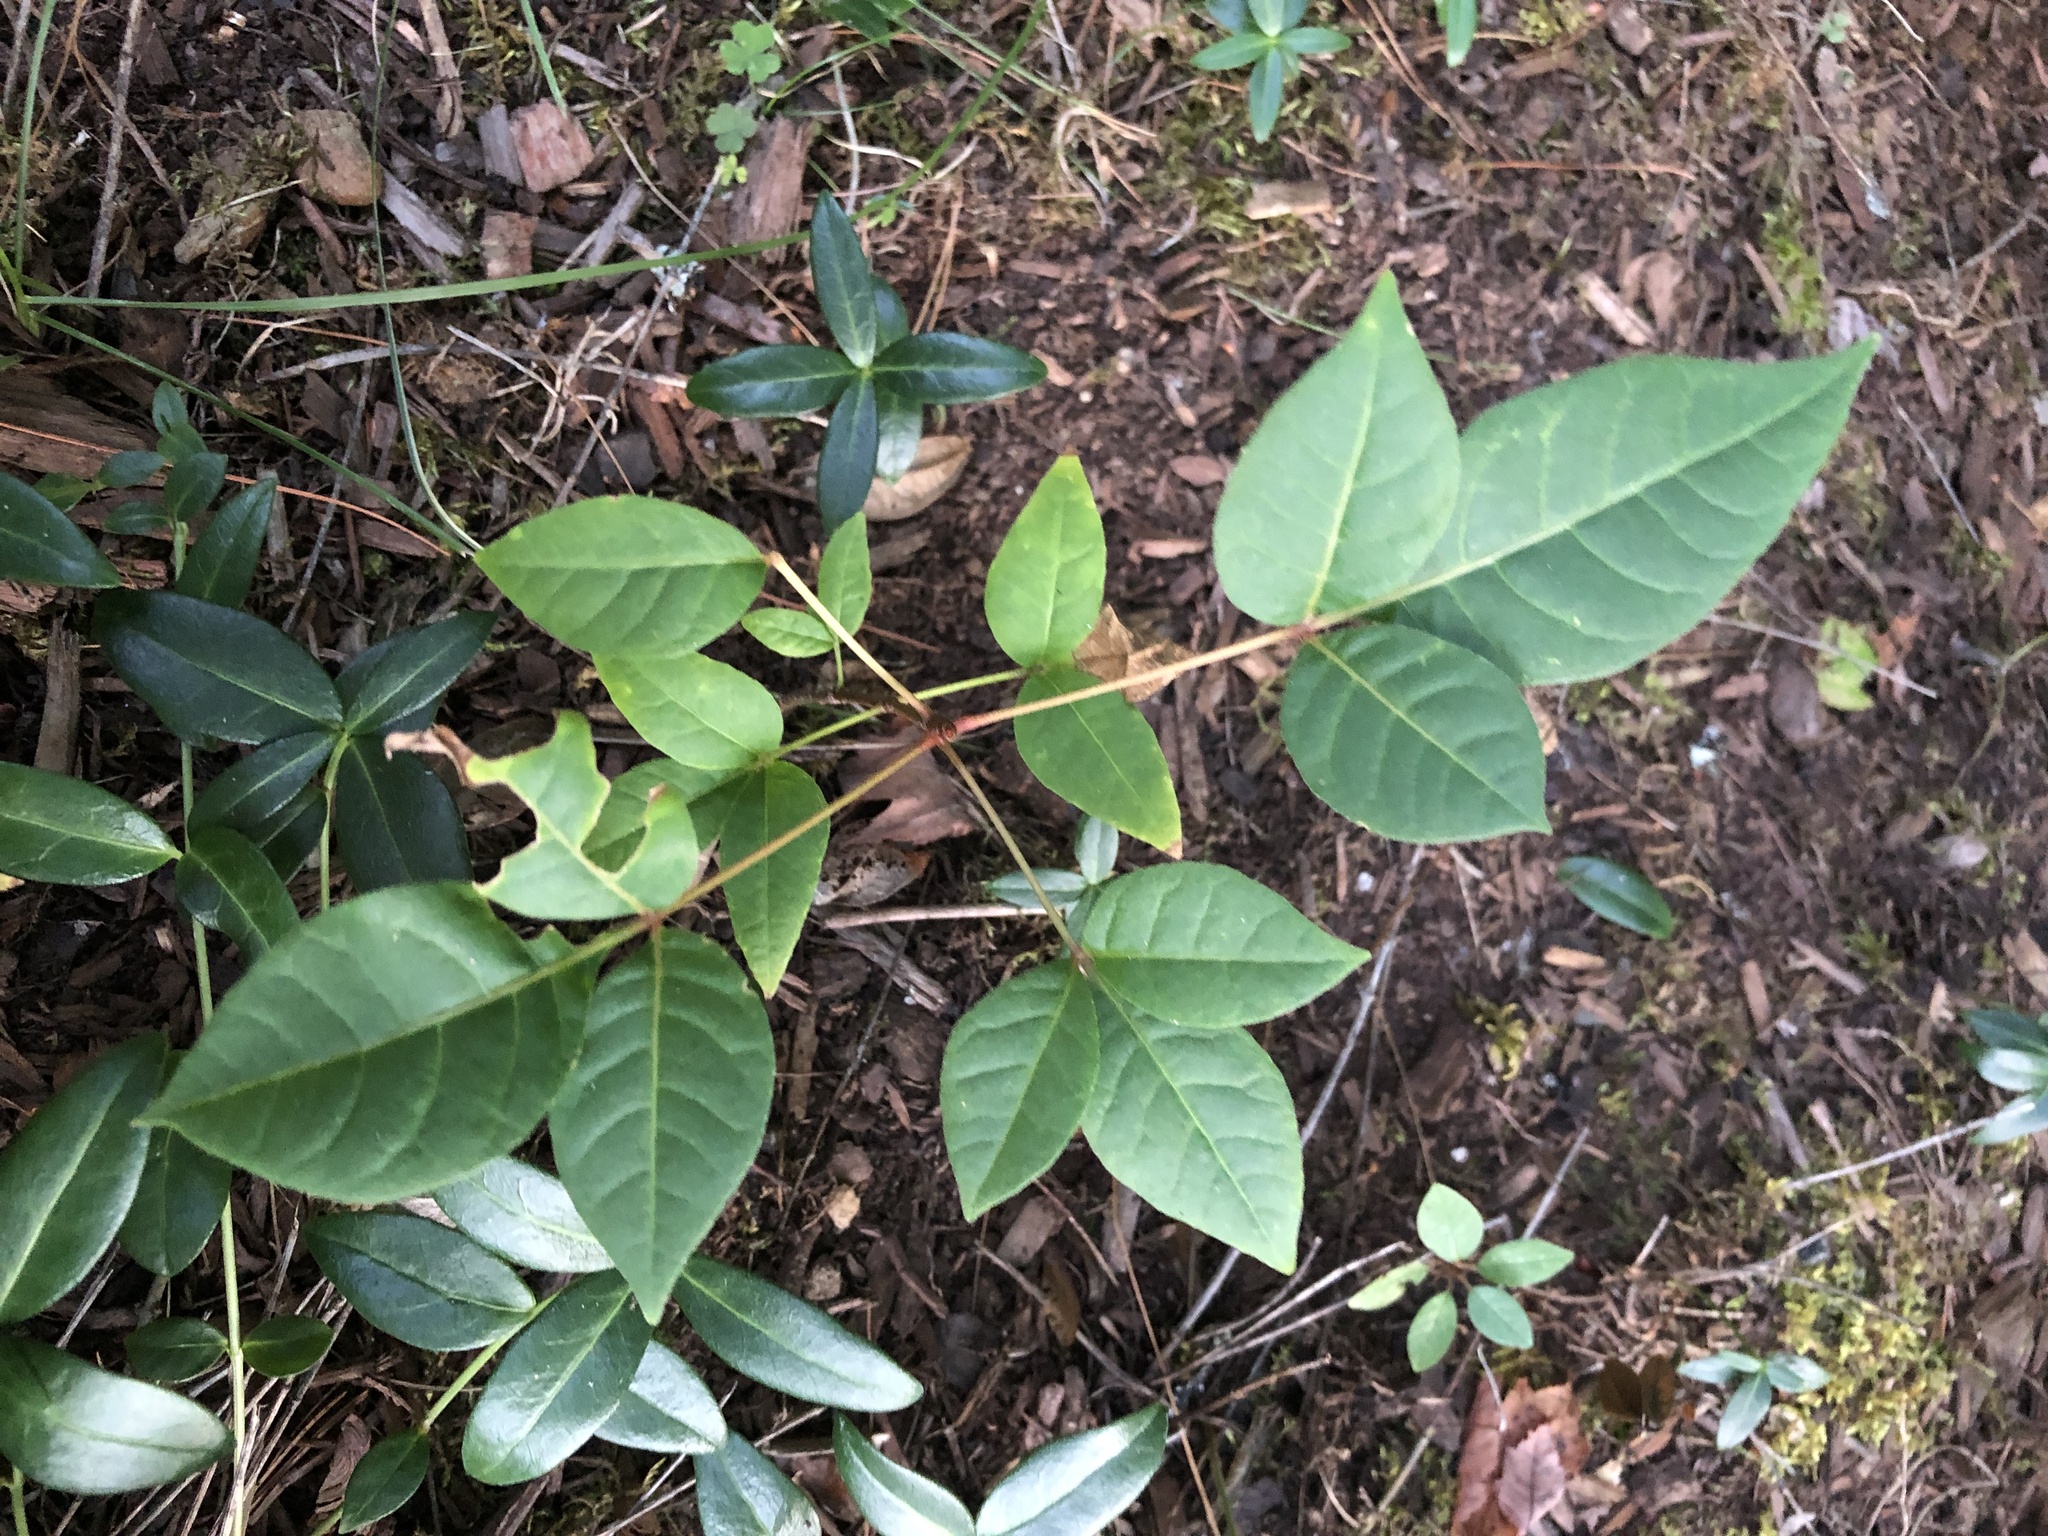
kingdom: Plantae
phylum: Tracheophyta
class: Magnoliopsida
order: Sapindales
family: Anacardiaceae
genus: Toxicodendron
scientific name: Toxicodendron radicans
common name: Poison ivy
